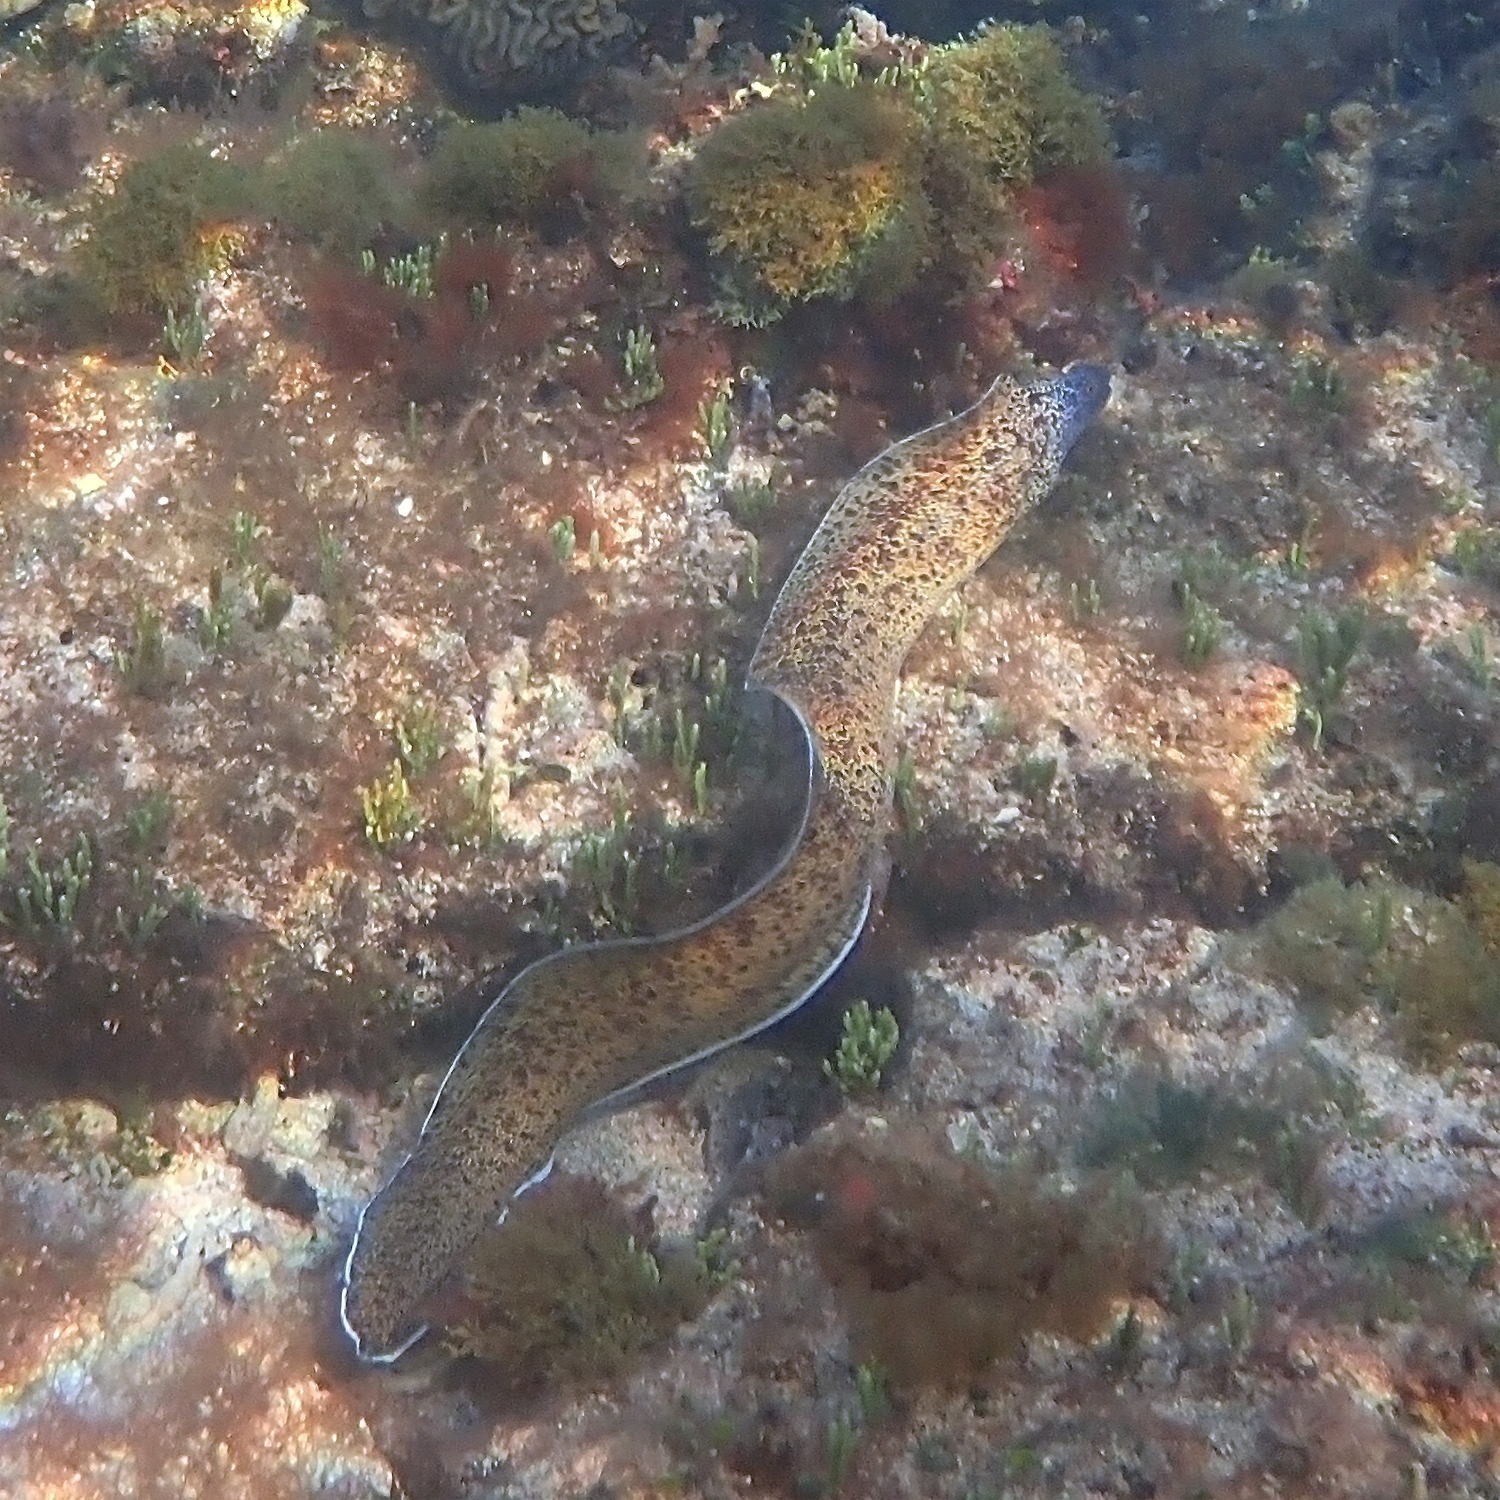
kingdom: Animalia
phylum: Chordata
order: Anguilliformes
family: Muraenidae
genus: Gymnothorax
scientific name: Gymnothorax annasona
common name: Lord howe island moray
